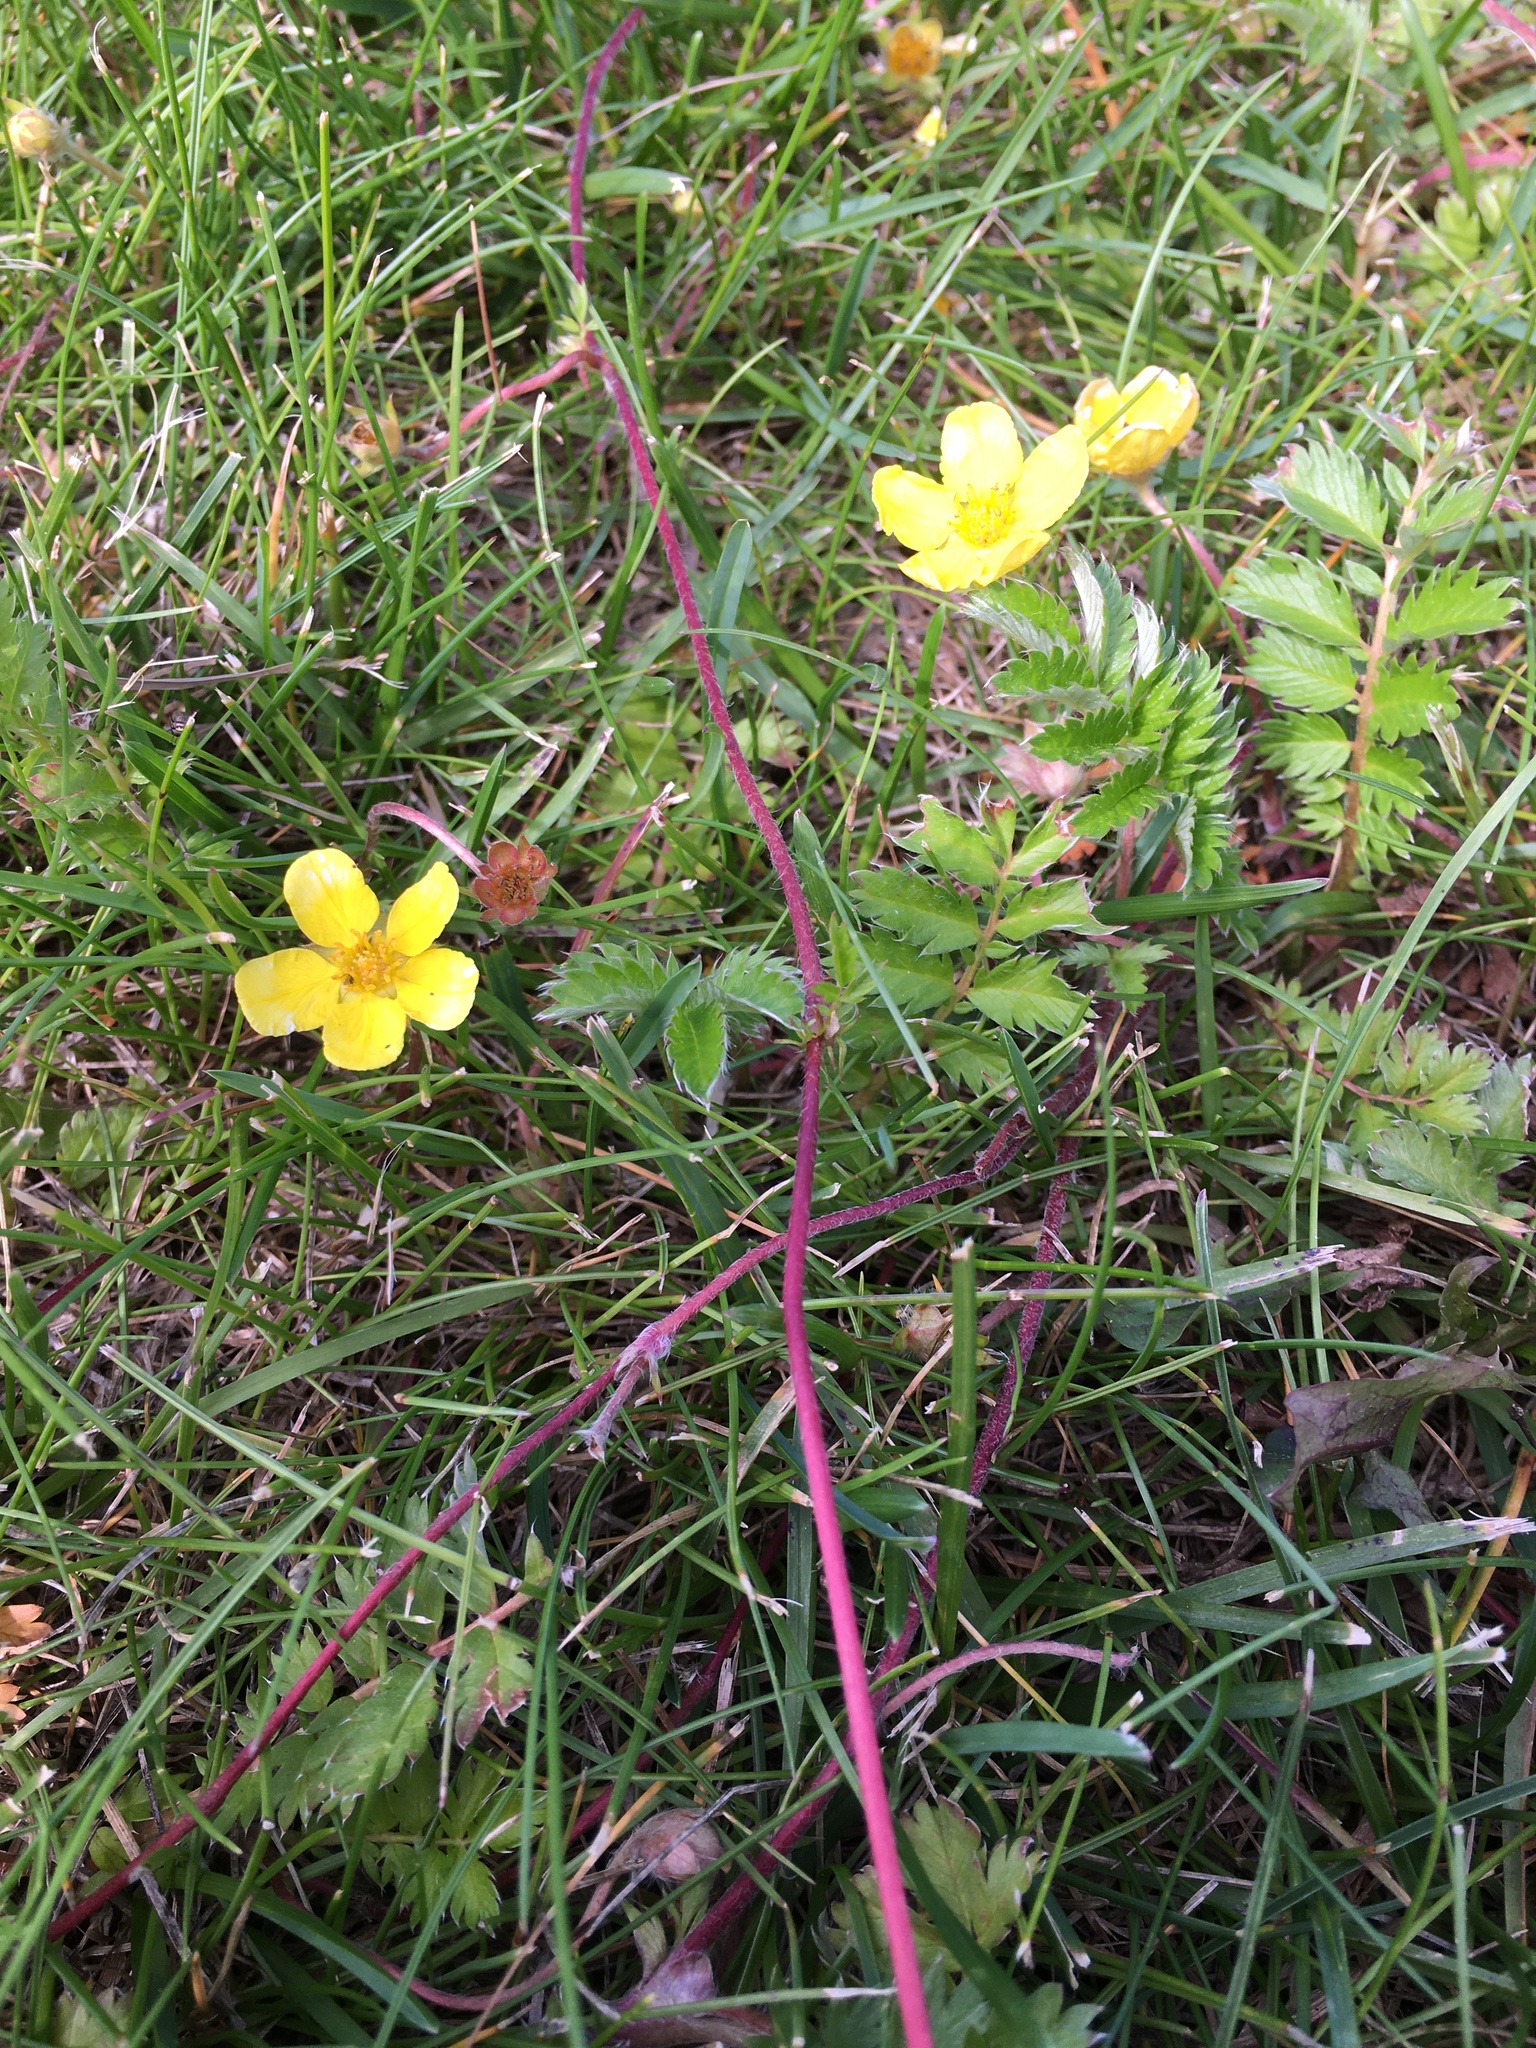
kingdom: Plantae
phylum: Tracheophyta
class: Magnoliopsida
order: Rosales
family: Rosaceae
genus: Argentina
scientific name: Argentina anserina
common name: Common silverweed
